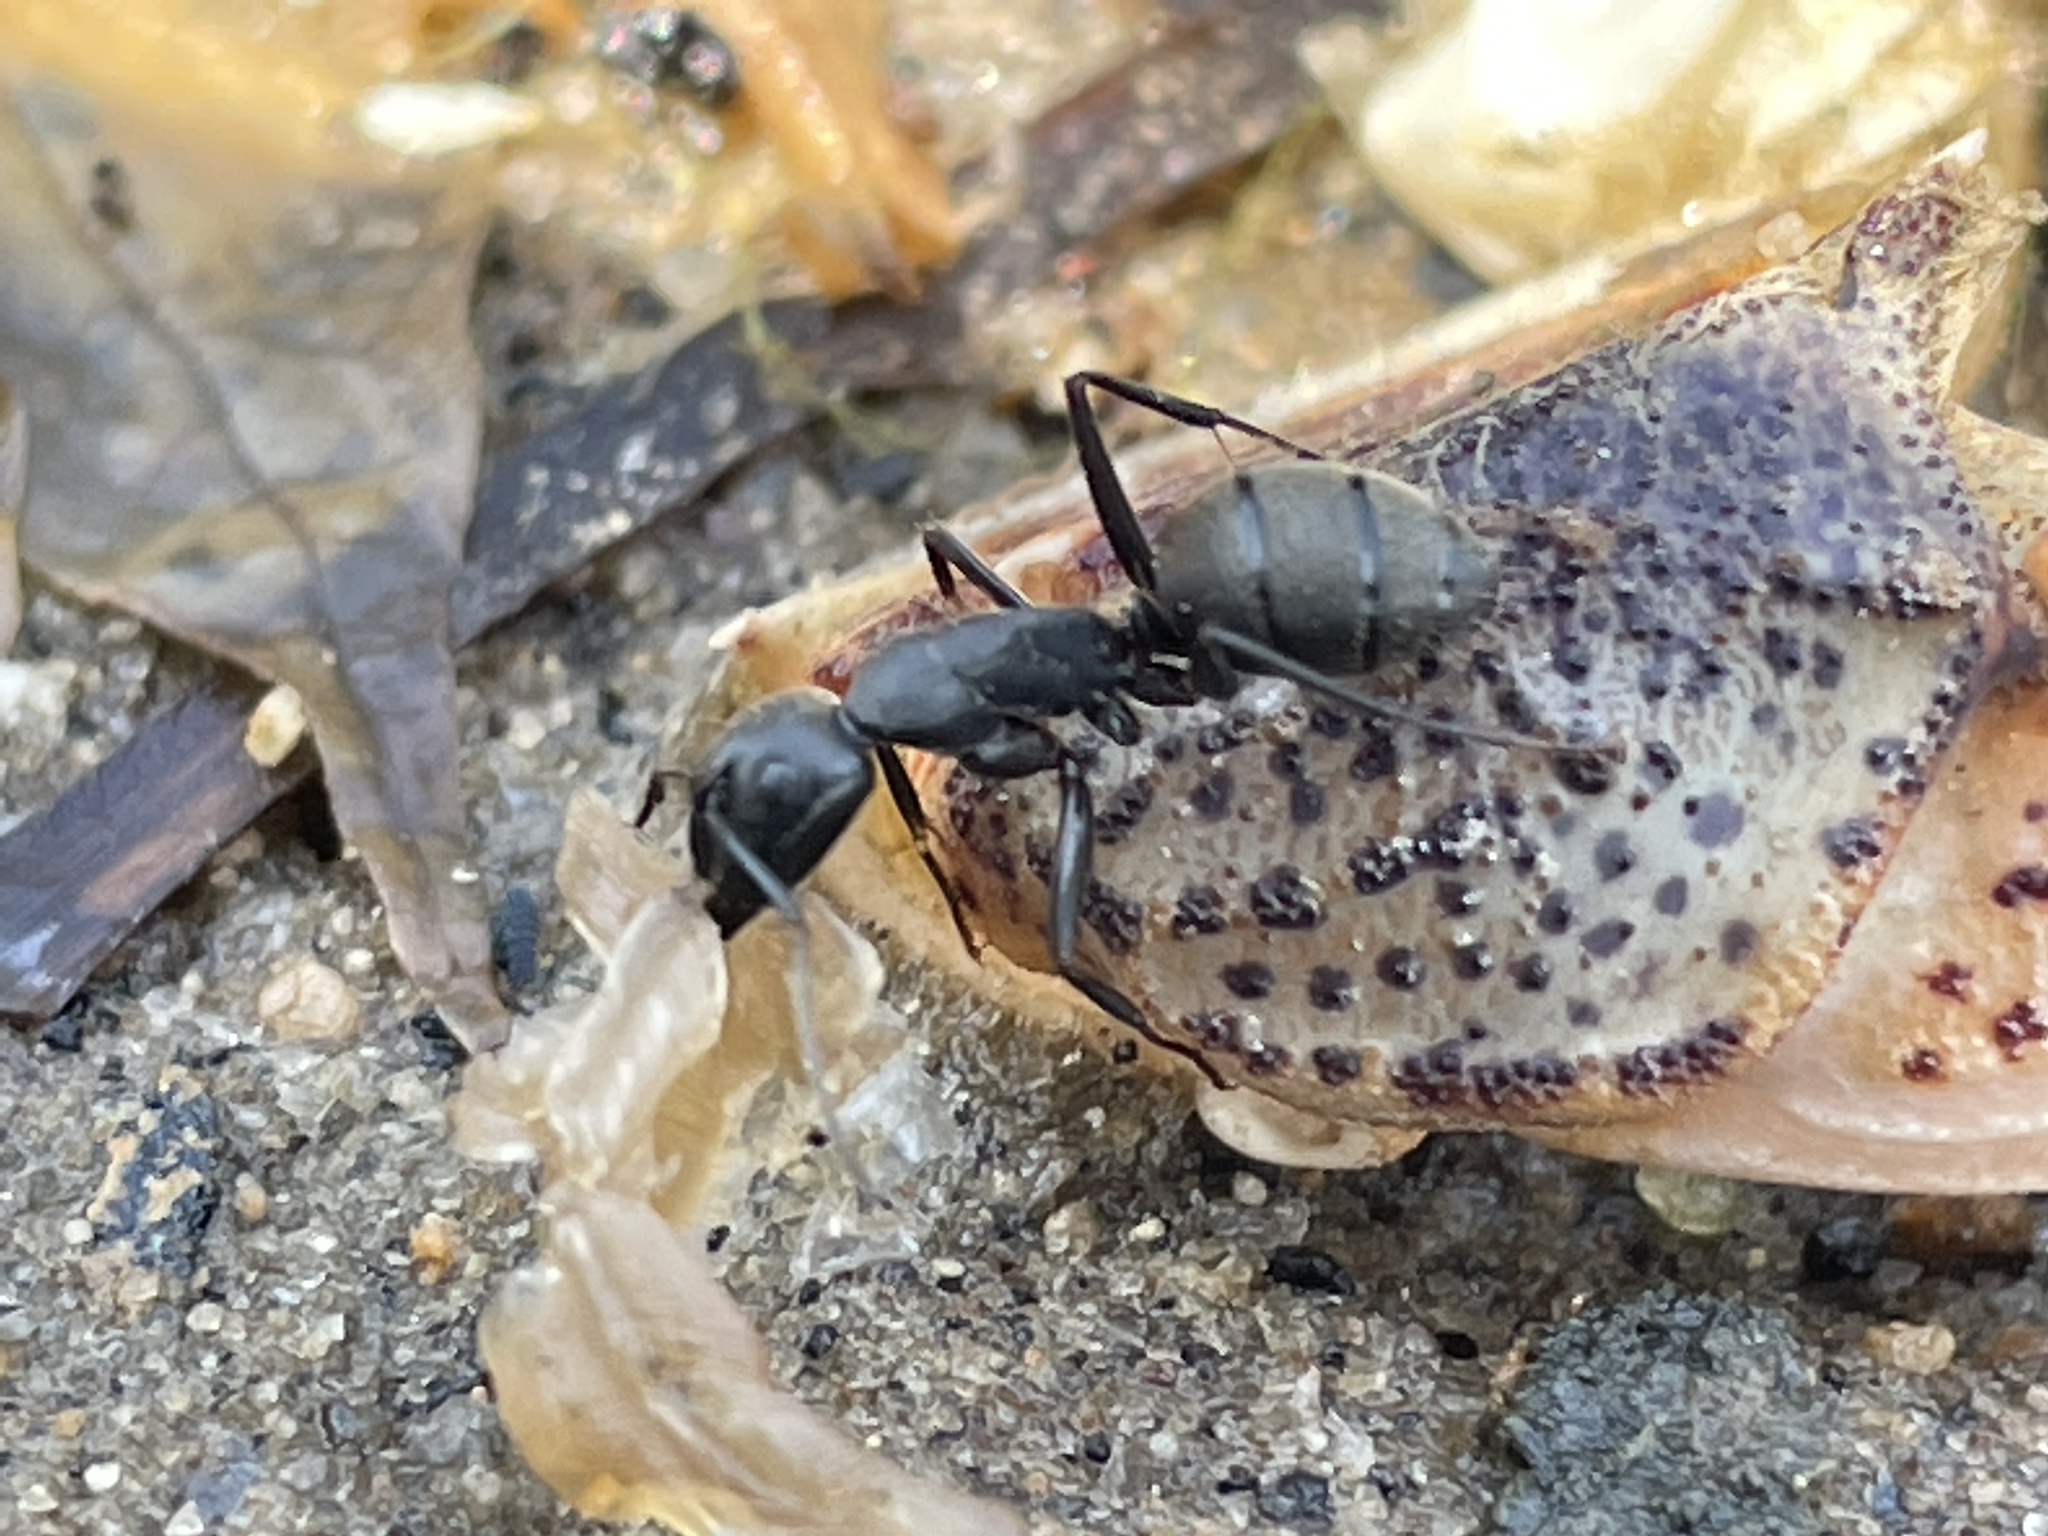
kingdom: Animalia
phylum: Arthropoda
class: Insecta
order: Hymenoptera
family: Formicidae
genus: Camponotus
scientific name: Camponotus pennsylvanicus
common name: Black carpenter ant
